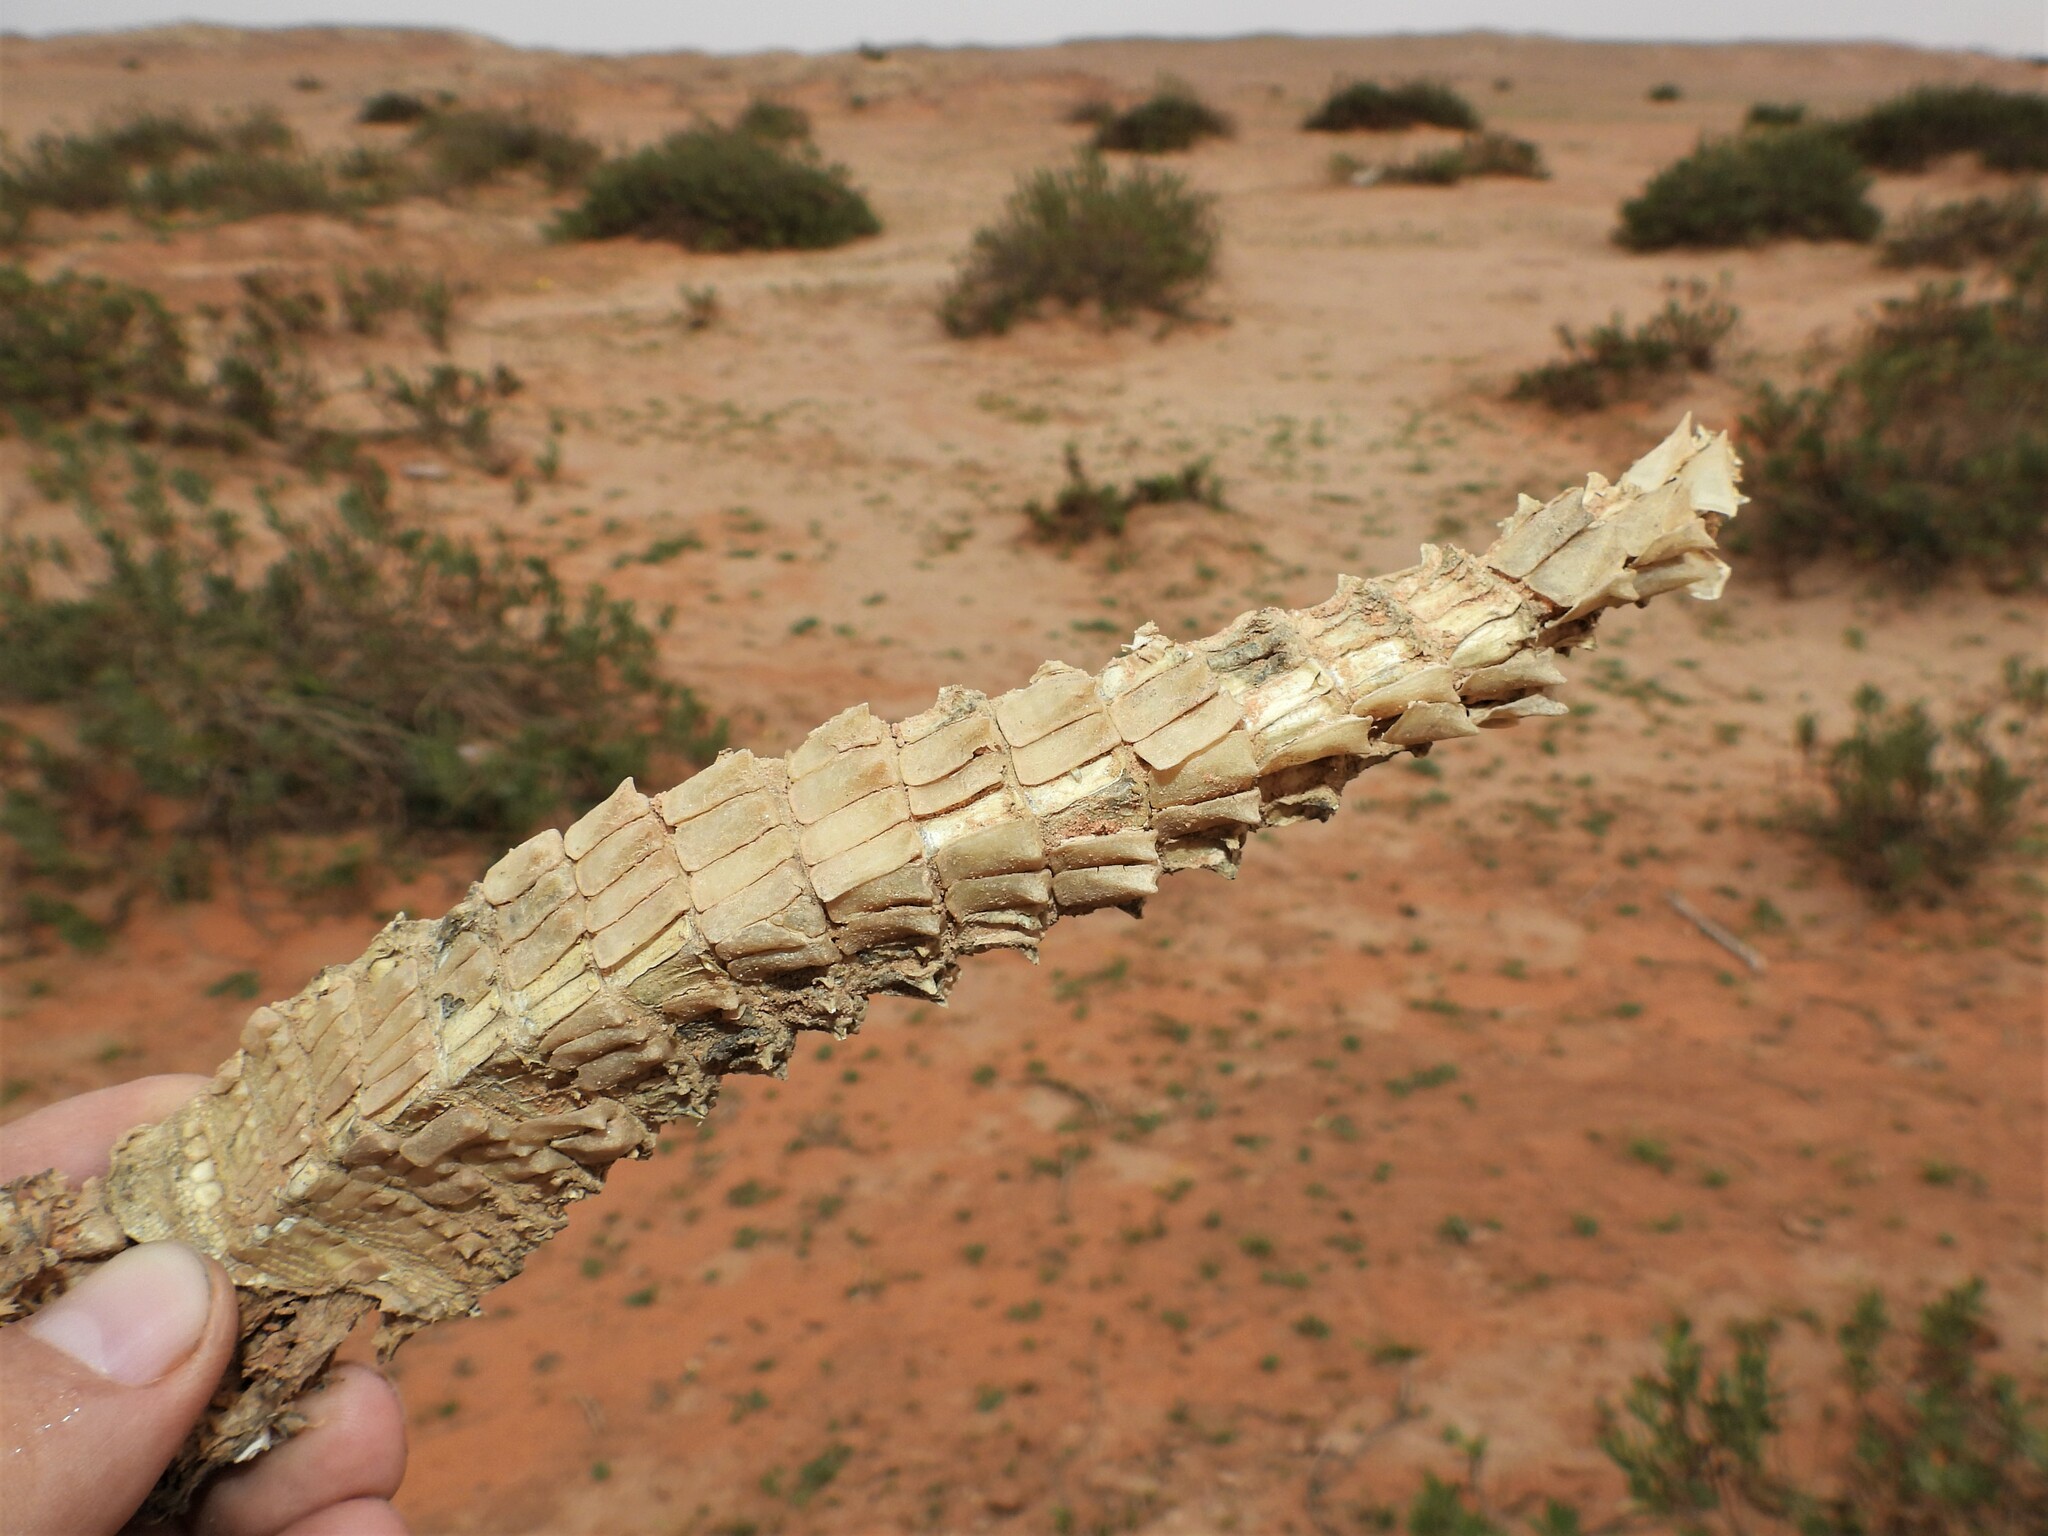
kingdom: Animalia
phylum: Chordata
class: Squamata
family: Agamidae
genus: Uromastyx
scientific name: Uromastyx aegyptia
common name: Egyptian mastigure
